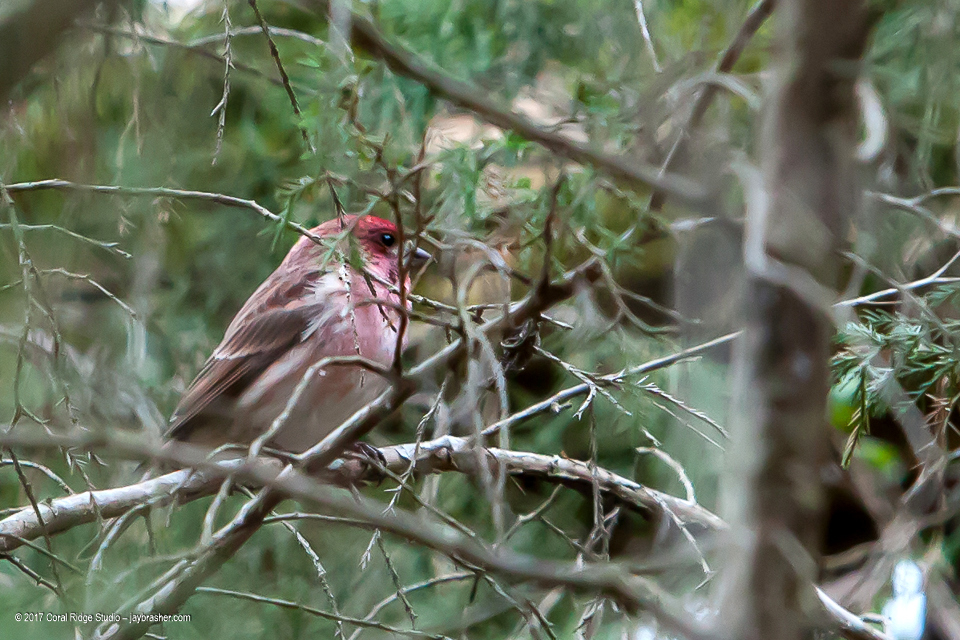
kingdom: Animalia
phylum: Chordata
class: Aves
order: Passeriformes
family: Fringillidae
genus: Haemorhous
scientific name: Haemorhous purpureus
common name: Purple finch
